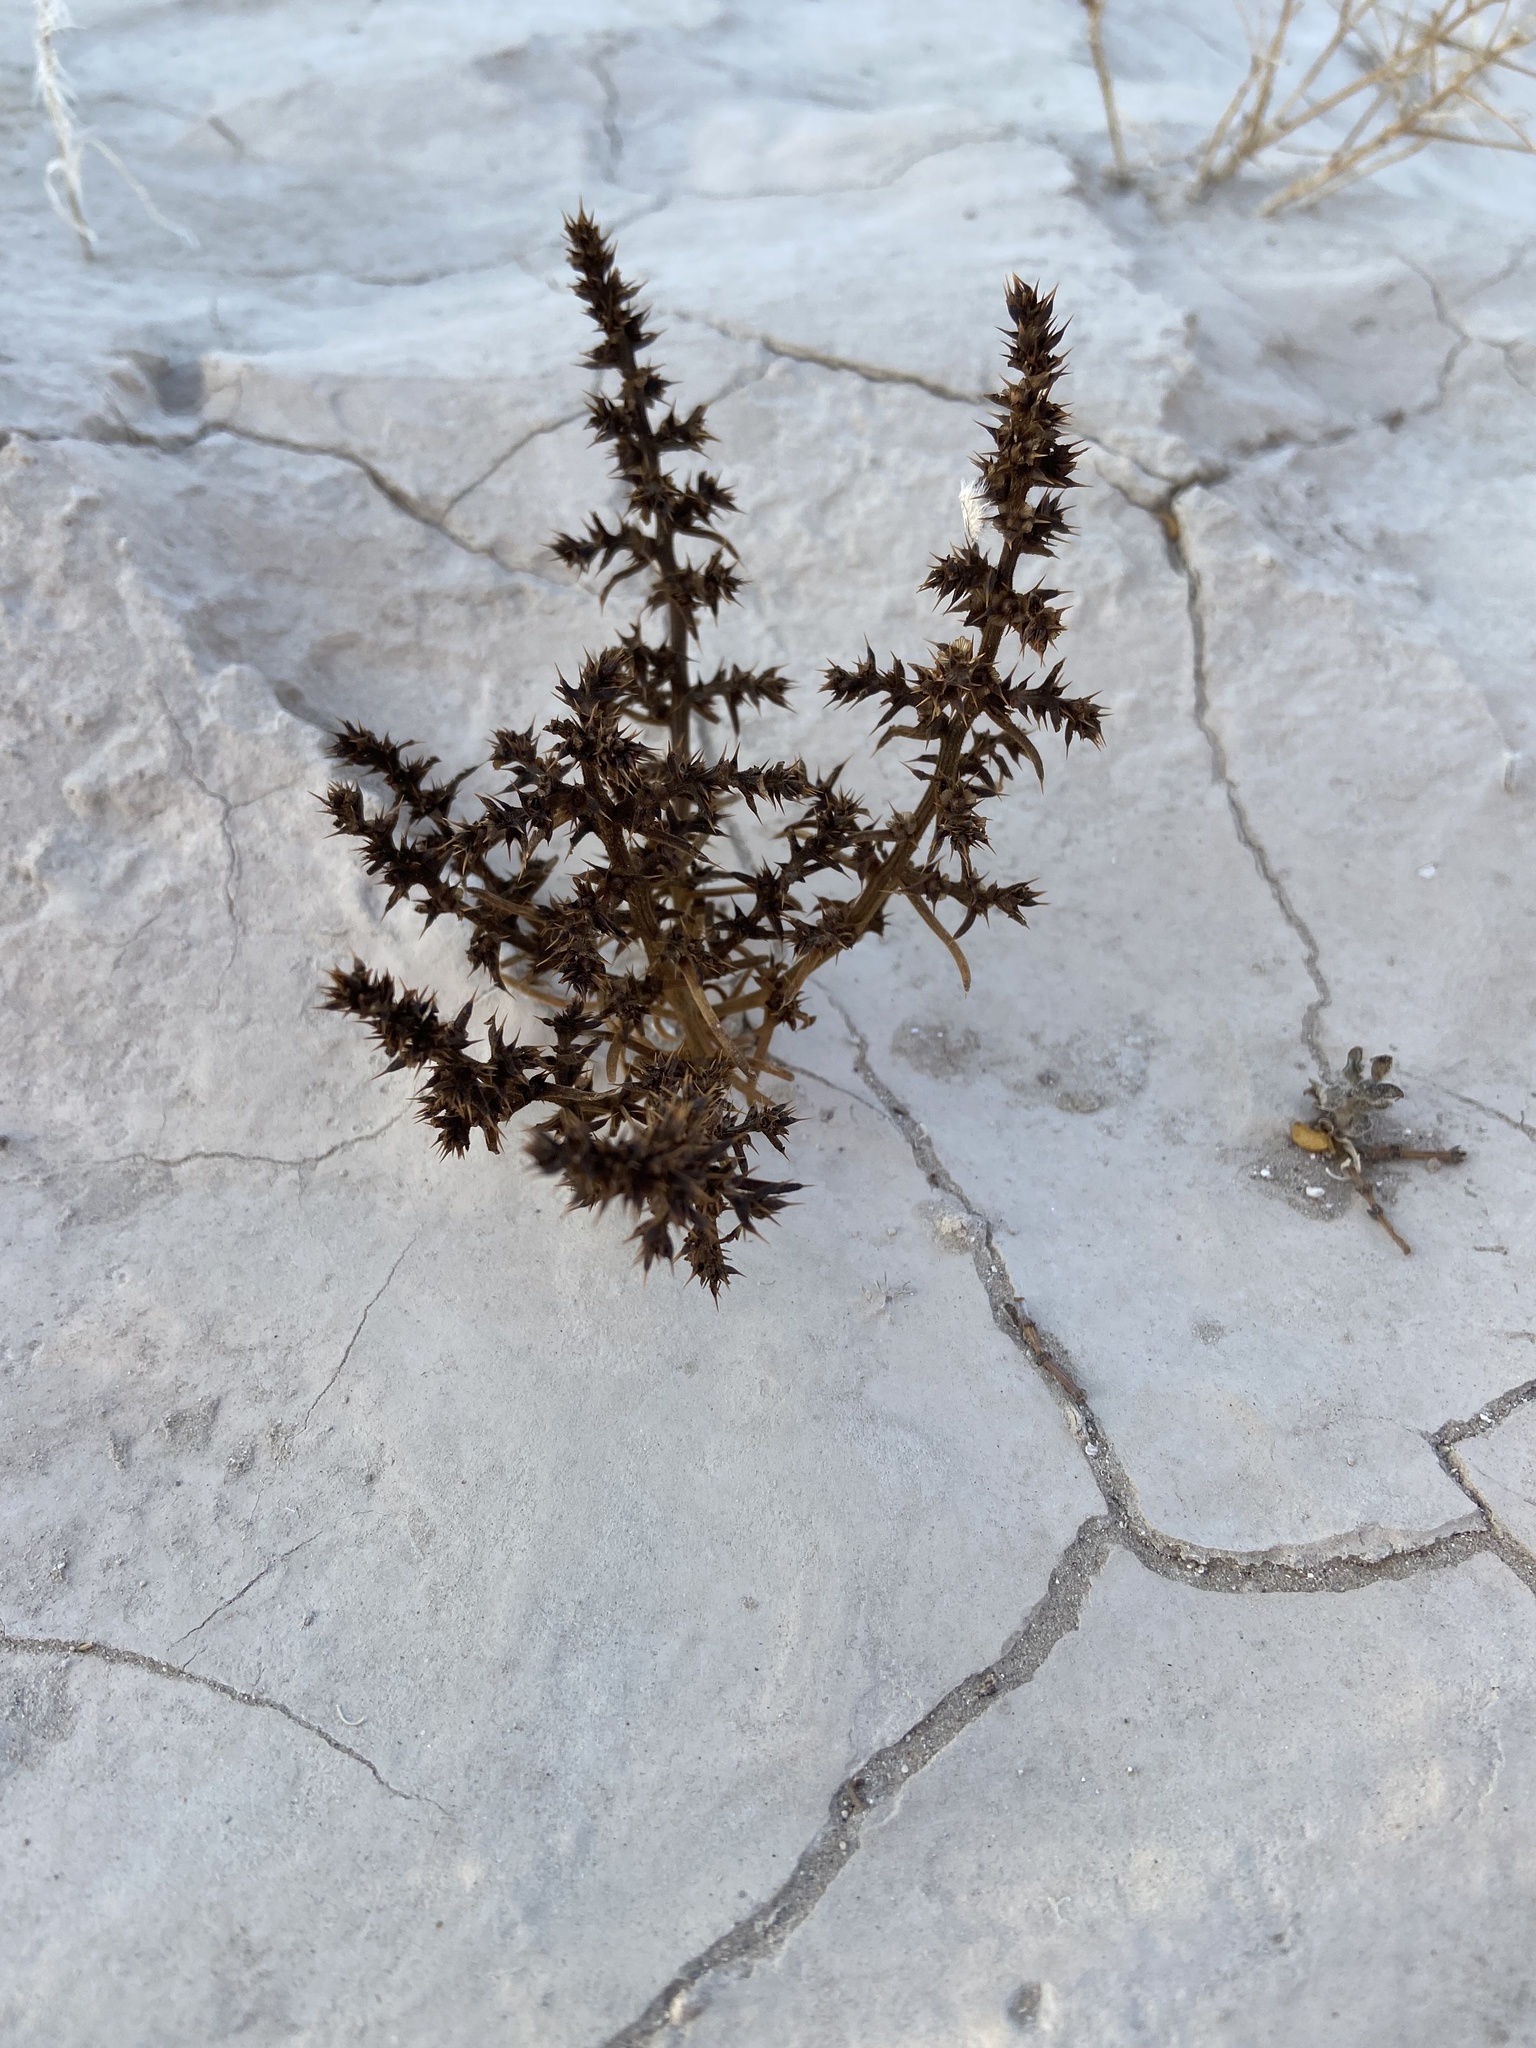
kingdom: Plantae
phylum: Tracheophyta
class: Magnoliopsida
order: Caryophyllales
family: Amaranthaceae
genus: Salsola
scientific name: Salsola tragus
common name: Prickly russian thistle
